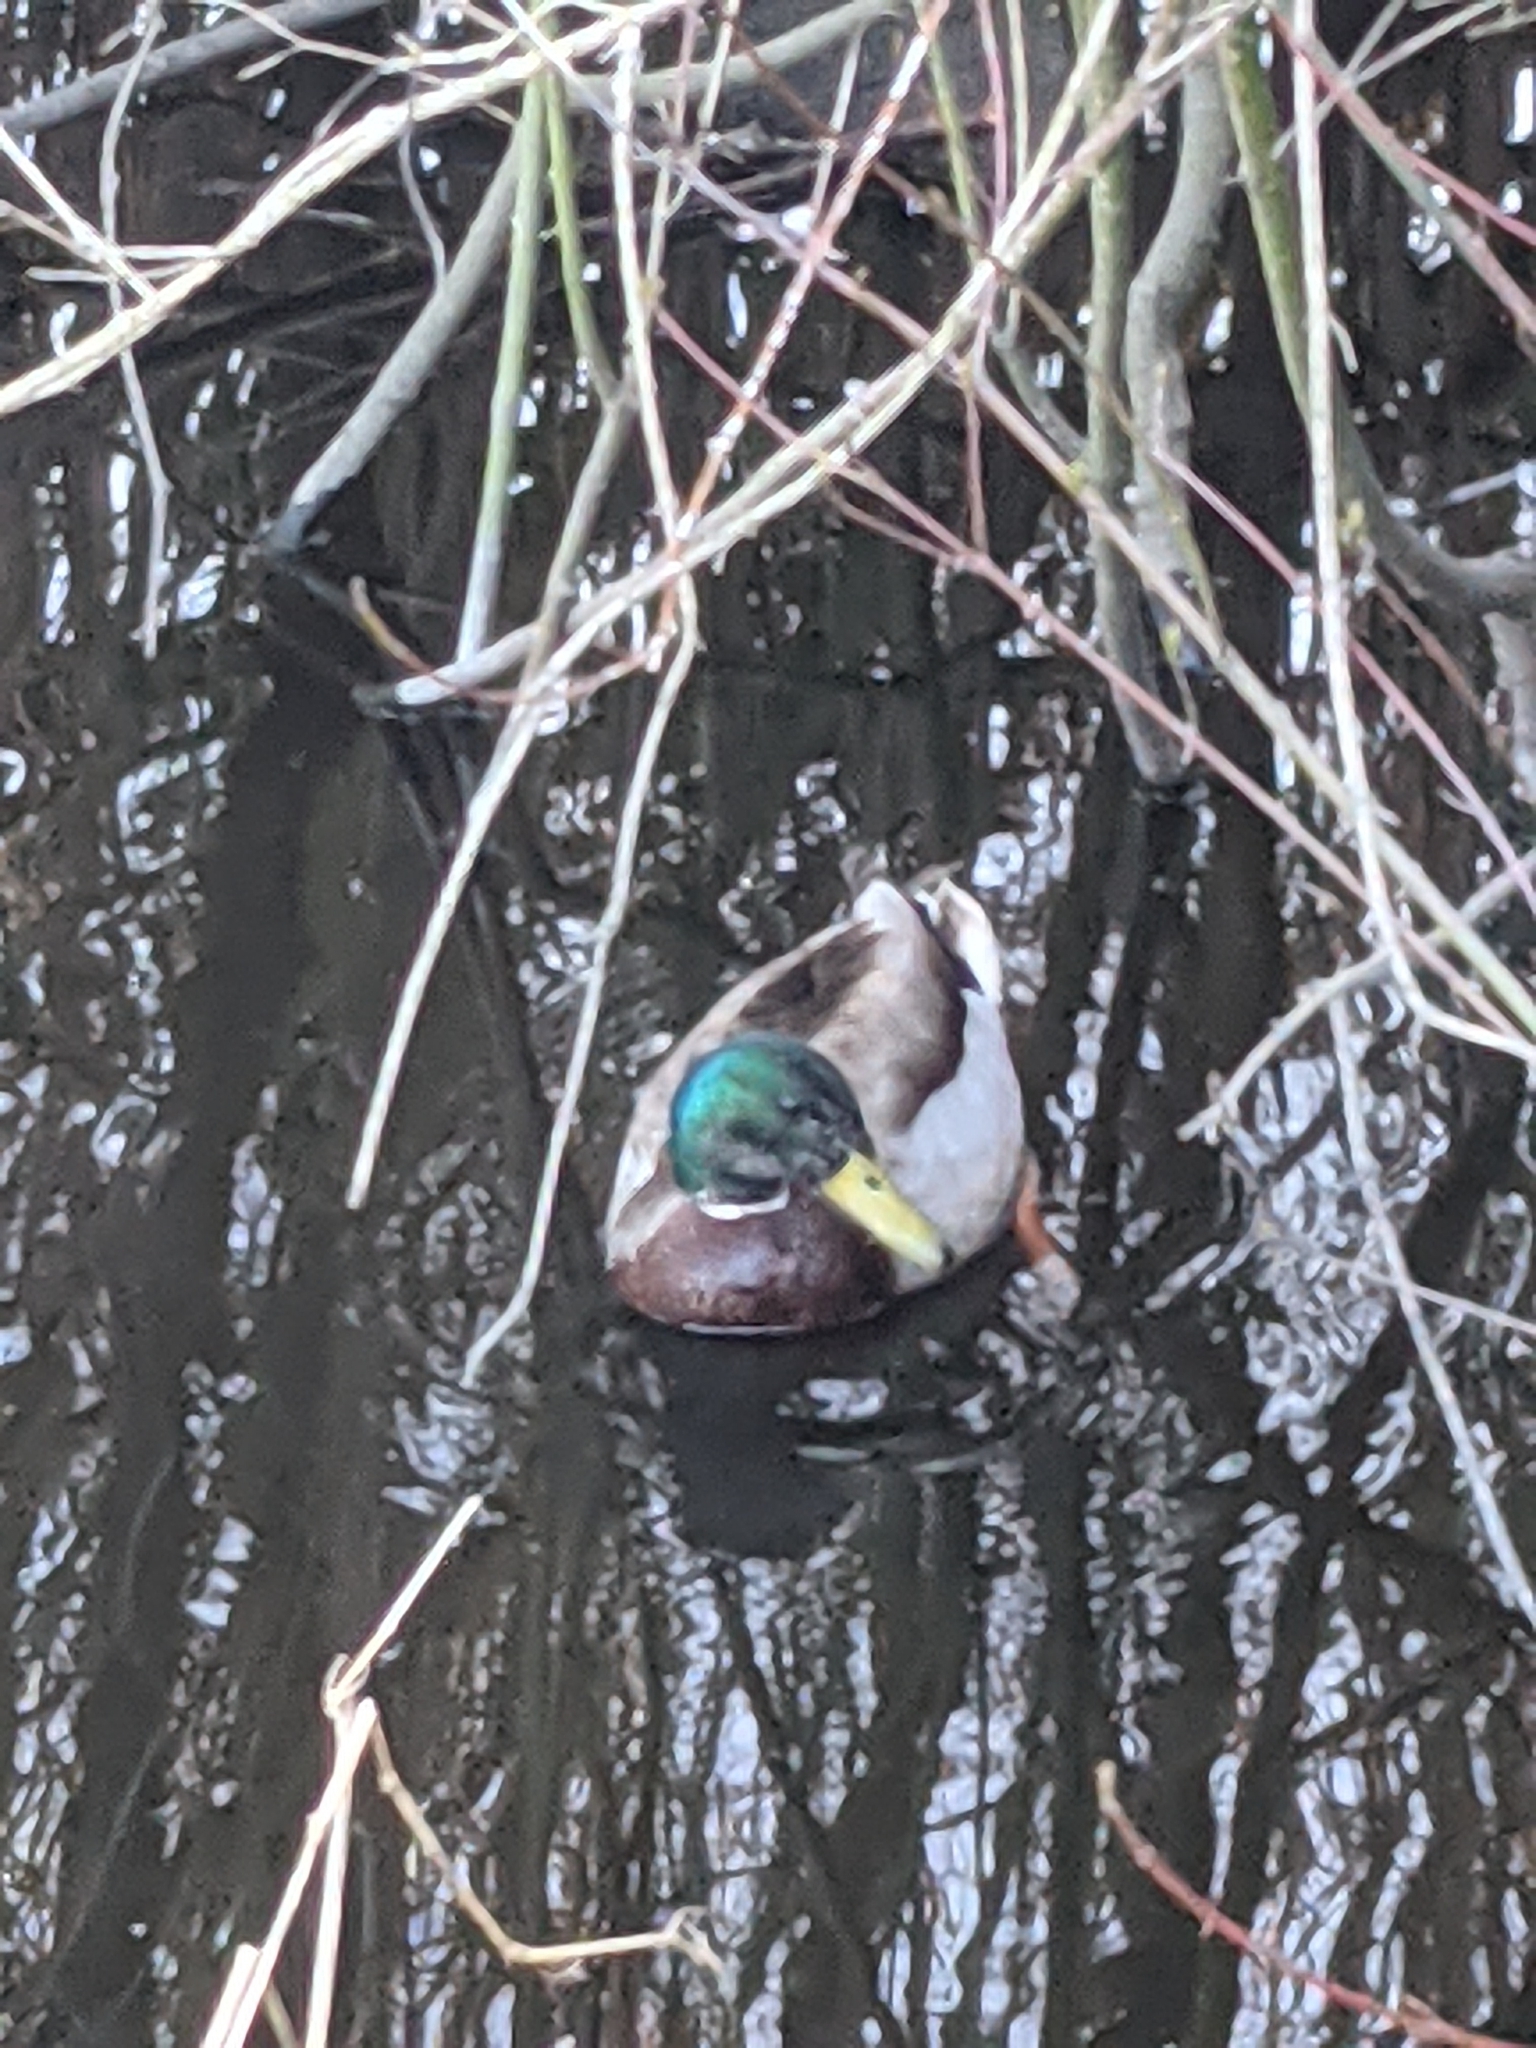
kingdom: Animalia
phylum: Chordata
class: Aves
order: Anseriformes
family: Anatidae
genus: Anas
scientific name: Anas platyrhynchos
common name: Mallard
